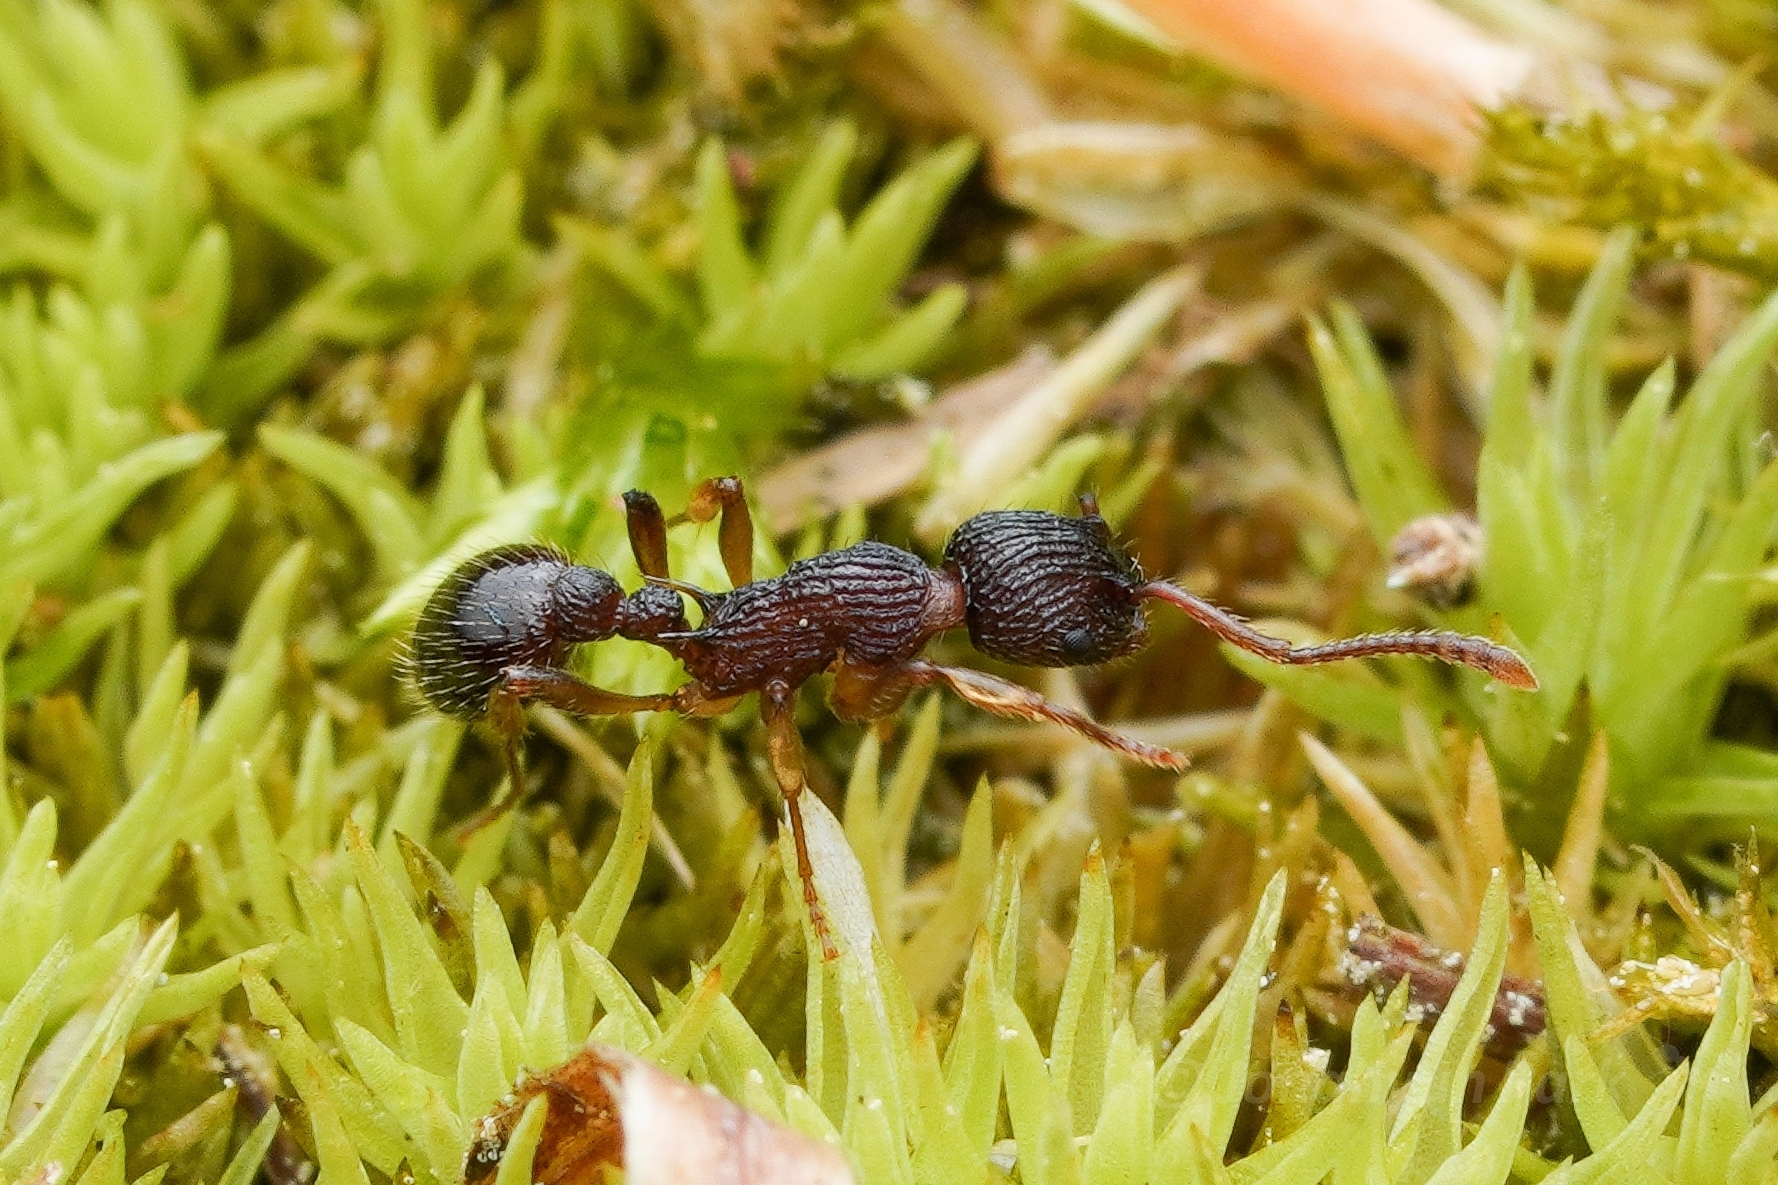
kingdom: Animalia
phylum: Arthropoda
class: Insecta
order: Hymenoptera
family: Formicidae
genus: Myrmica
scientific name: Myrmica punctiventris
